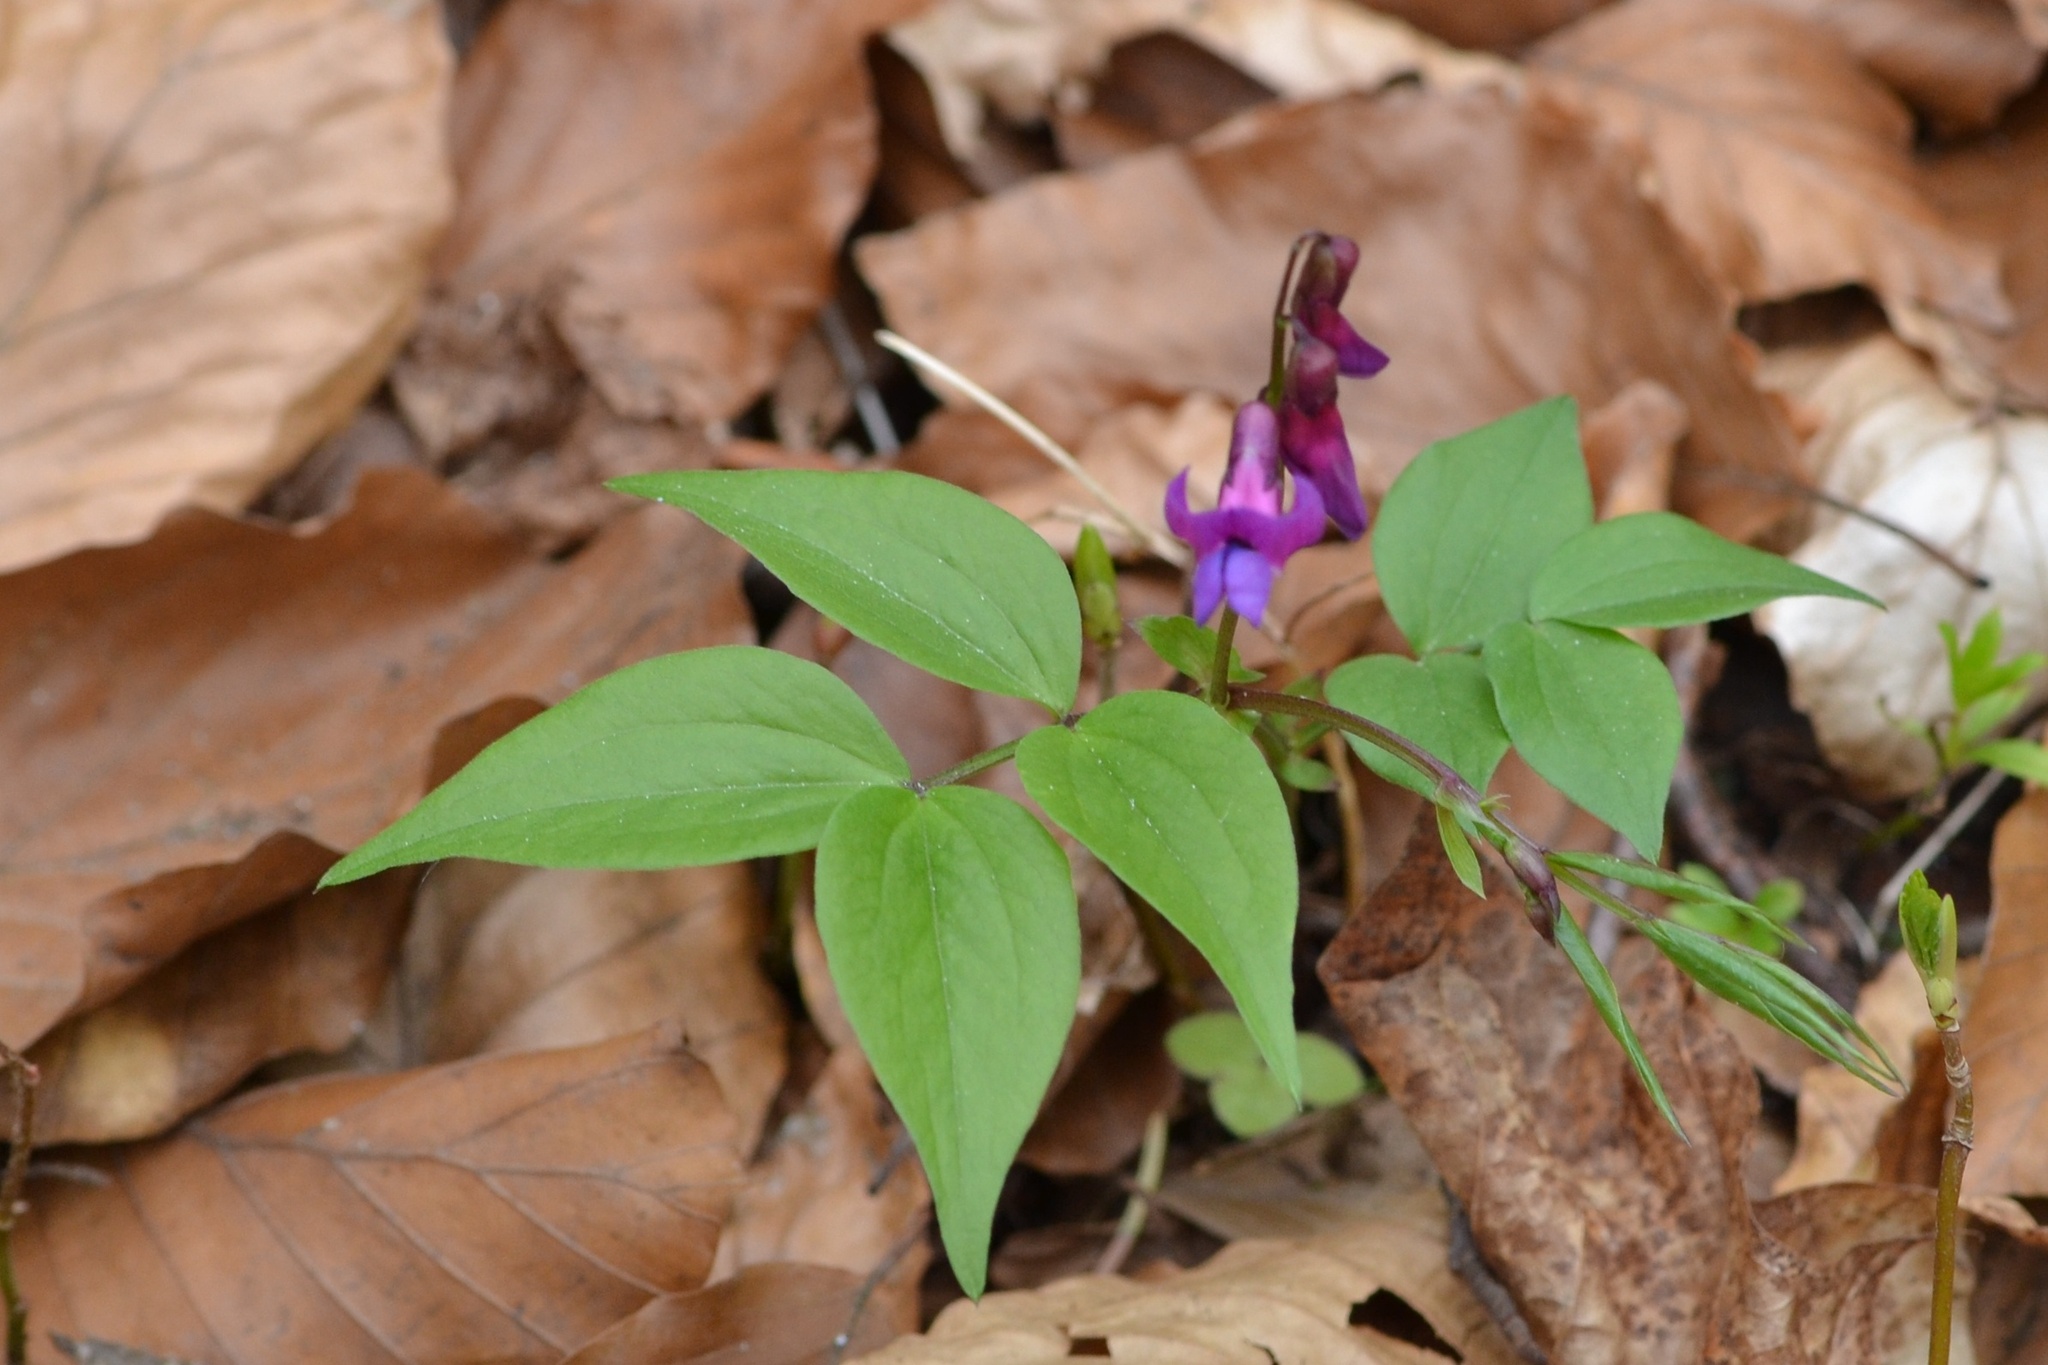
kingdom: Plantae
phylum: Tracheophyta
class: Magnoliopsida
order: Fabales
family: Fabaceae
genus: Lathyrus
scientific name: Lathyrus vernus
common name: Spring pea
